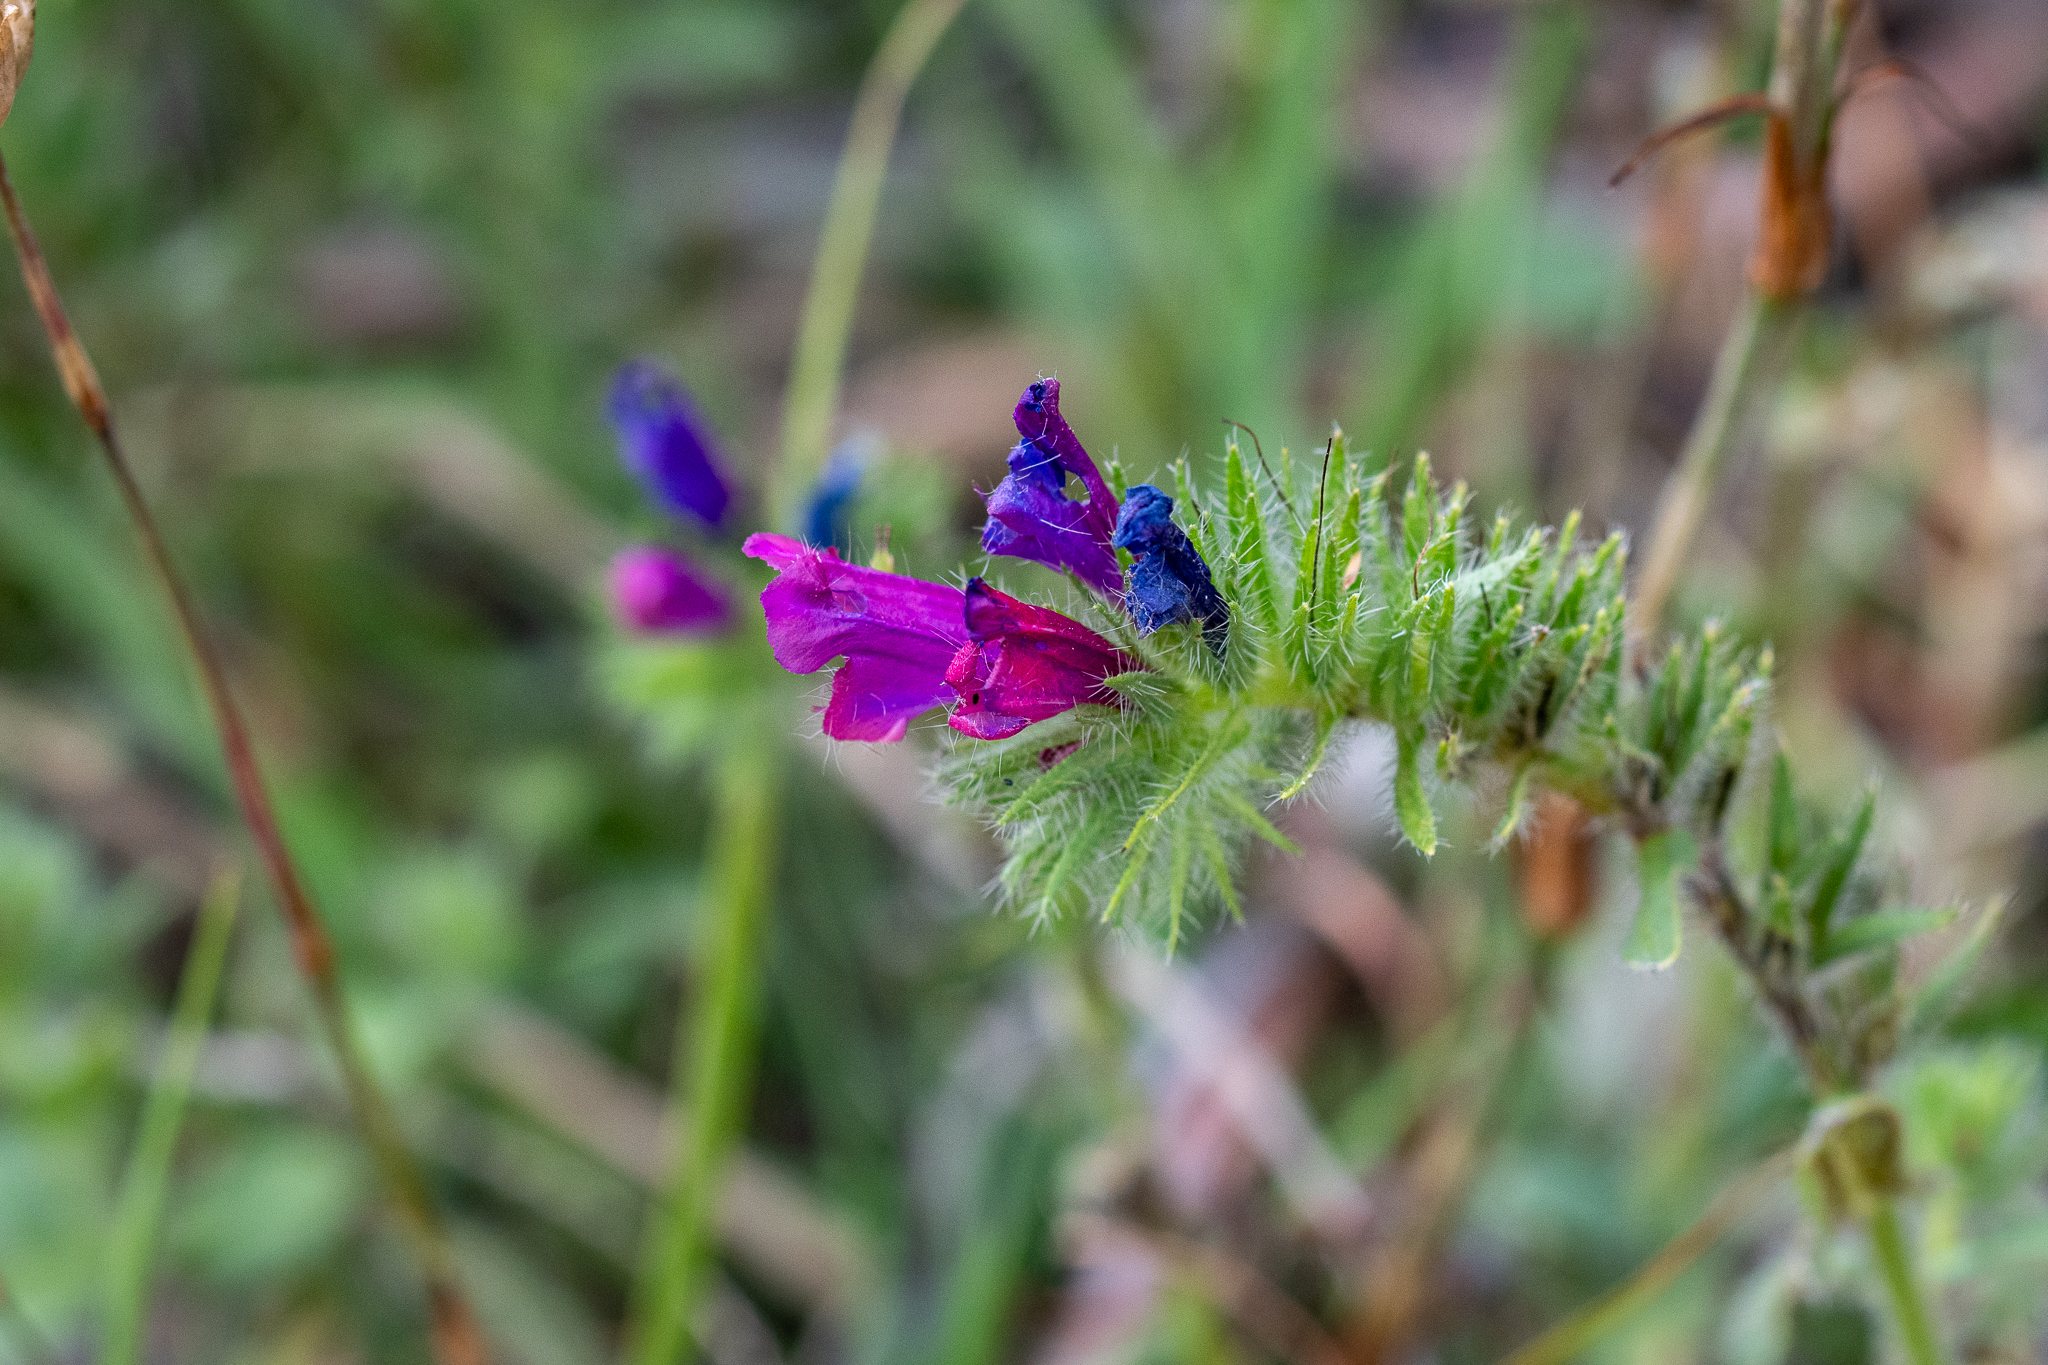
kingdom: Plantae
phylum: Tracheophyta
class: Magnoliopsida
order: Boraginales
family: Boraginaceae
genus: Echium
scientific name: Echium plantagineum
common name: Purple viper's-bugloss
